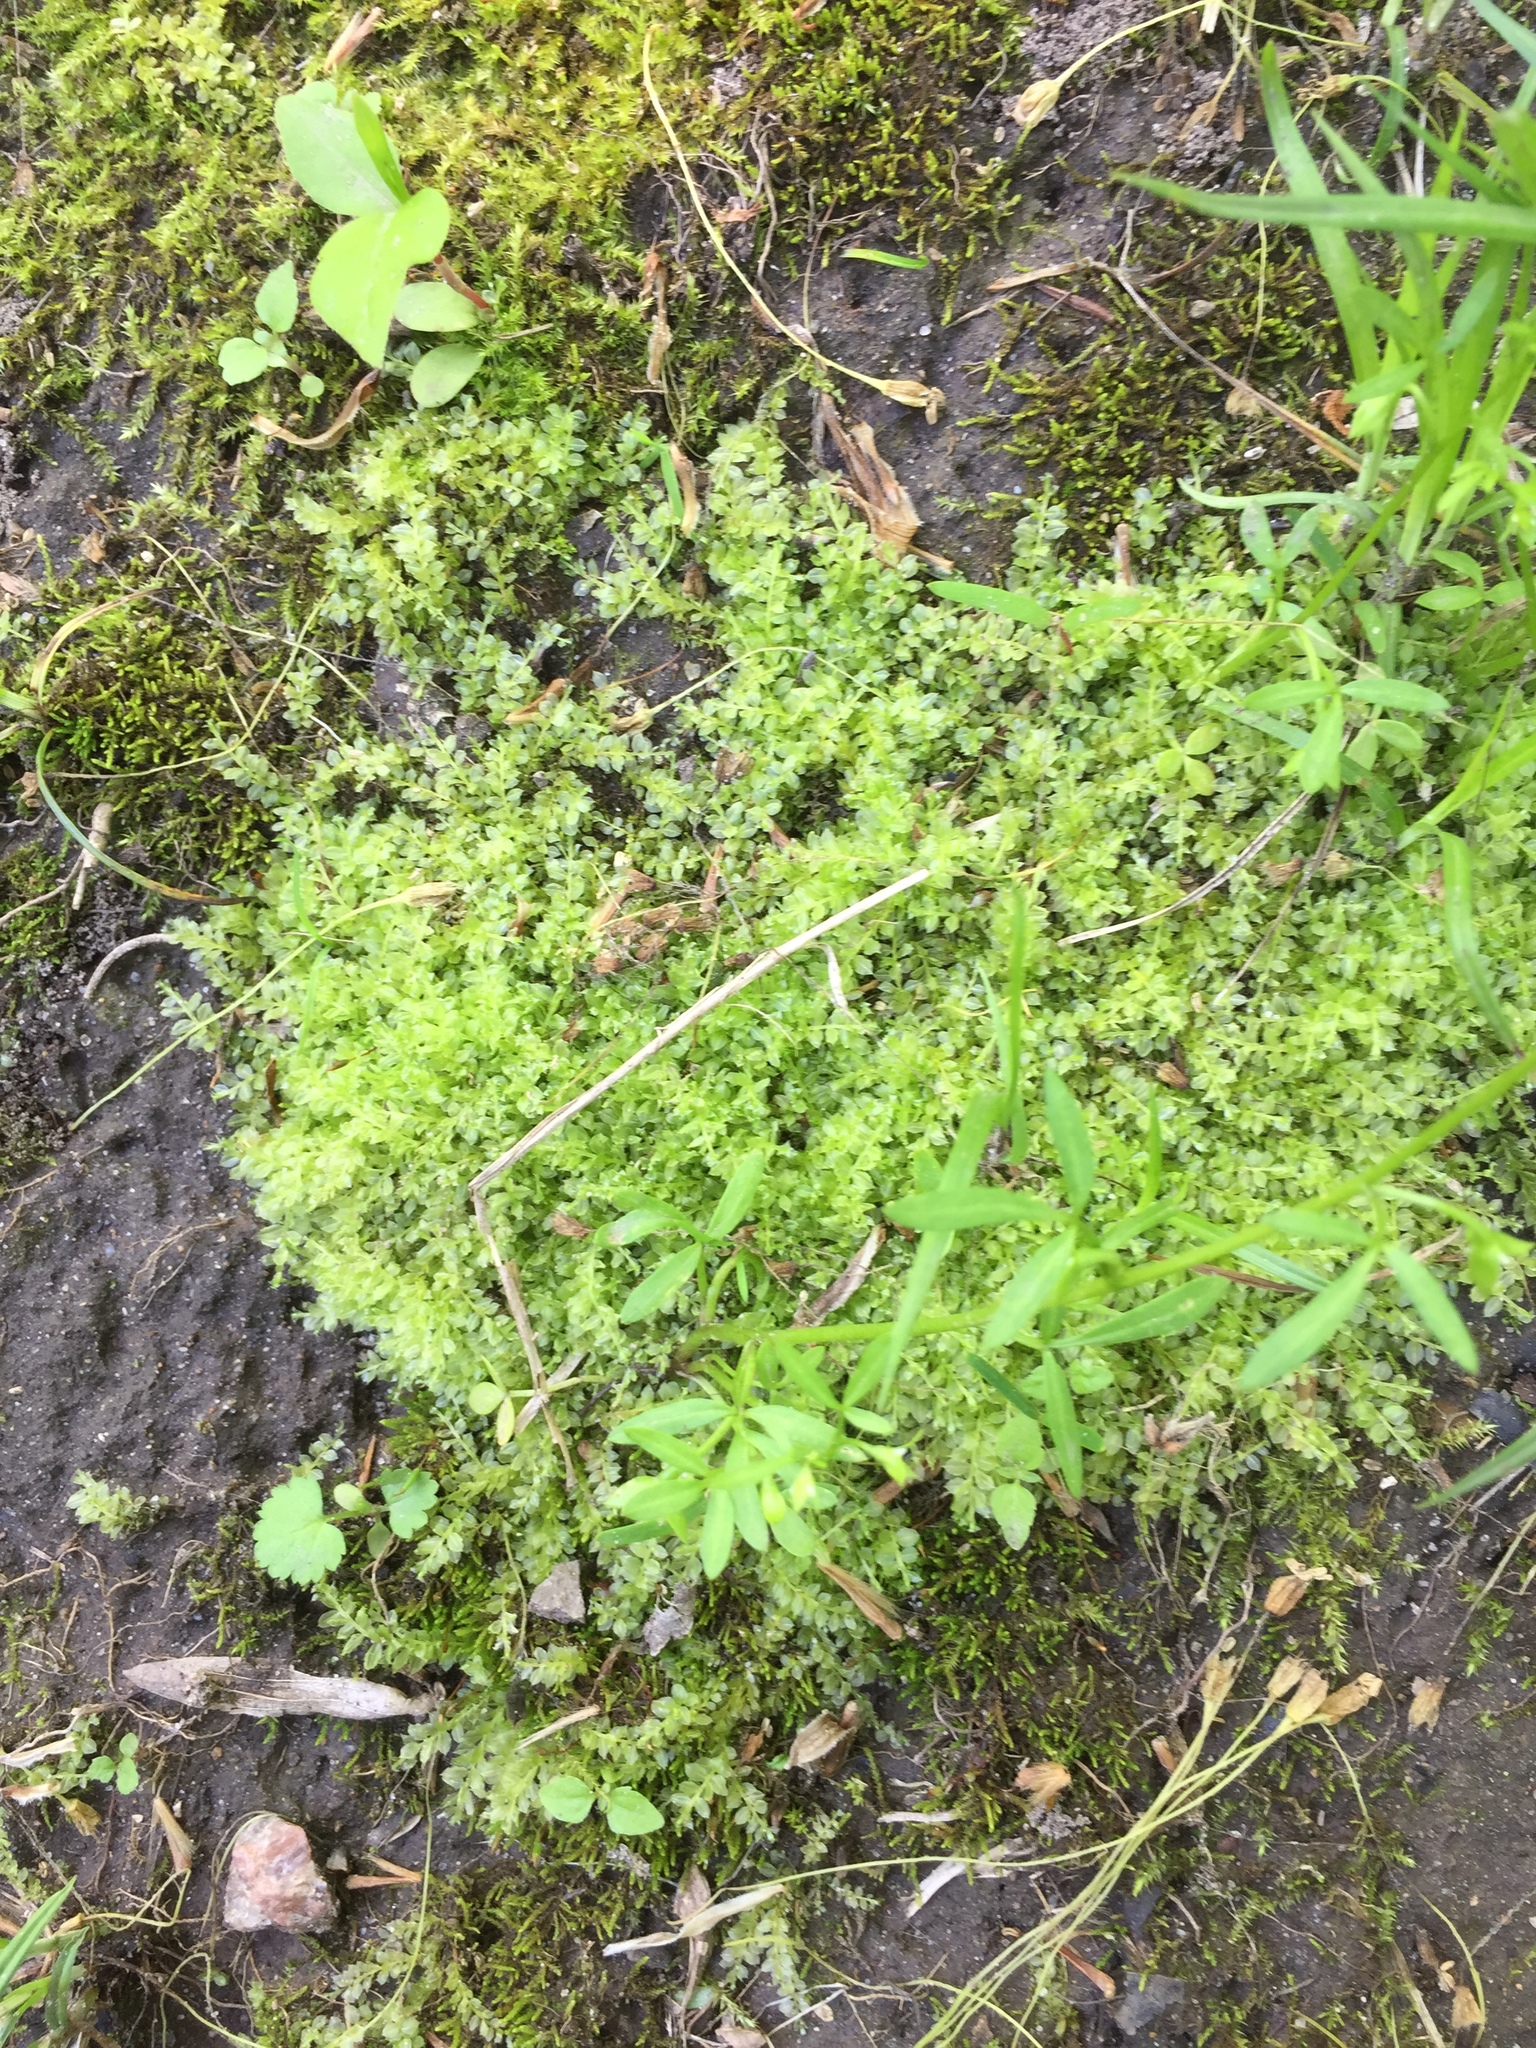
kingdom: Plantae
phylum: Bryophyta
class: Bryopsida
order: Bryales
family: Mniaceae
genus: Plagiomnium
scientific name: Plagiomnium cuspidatum
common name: Woodsy leafy moss
